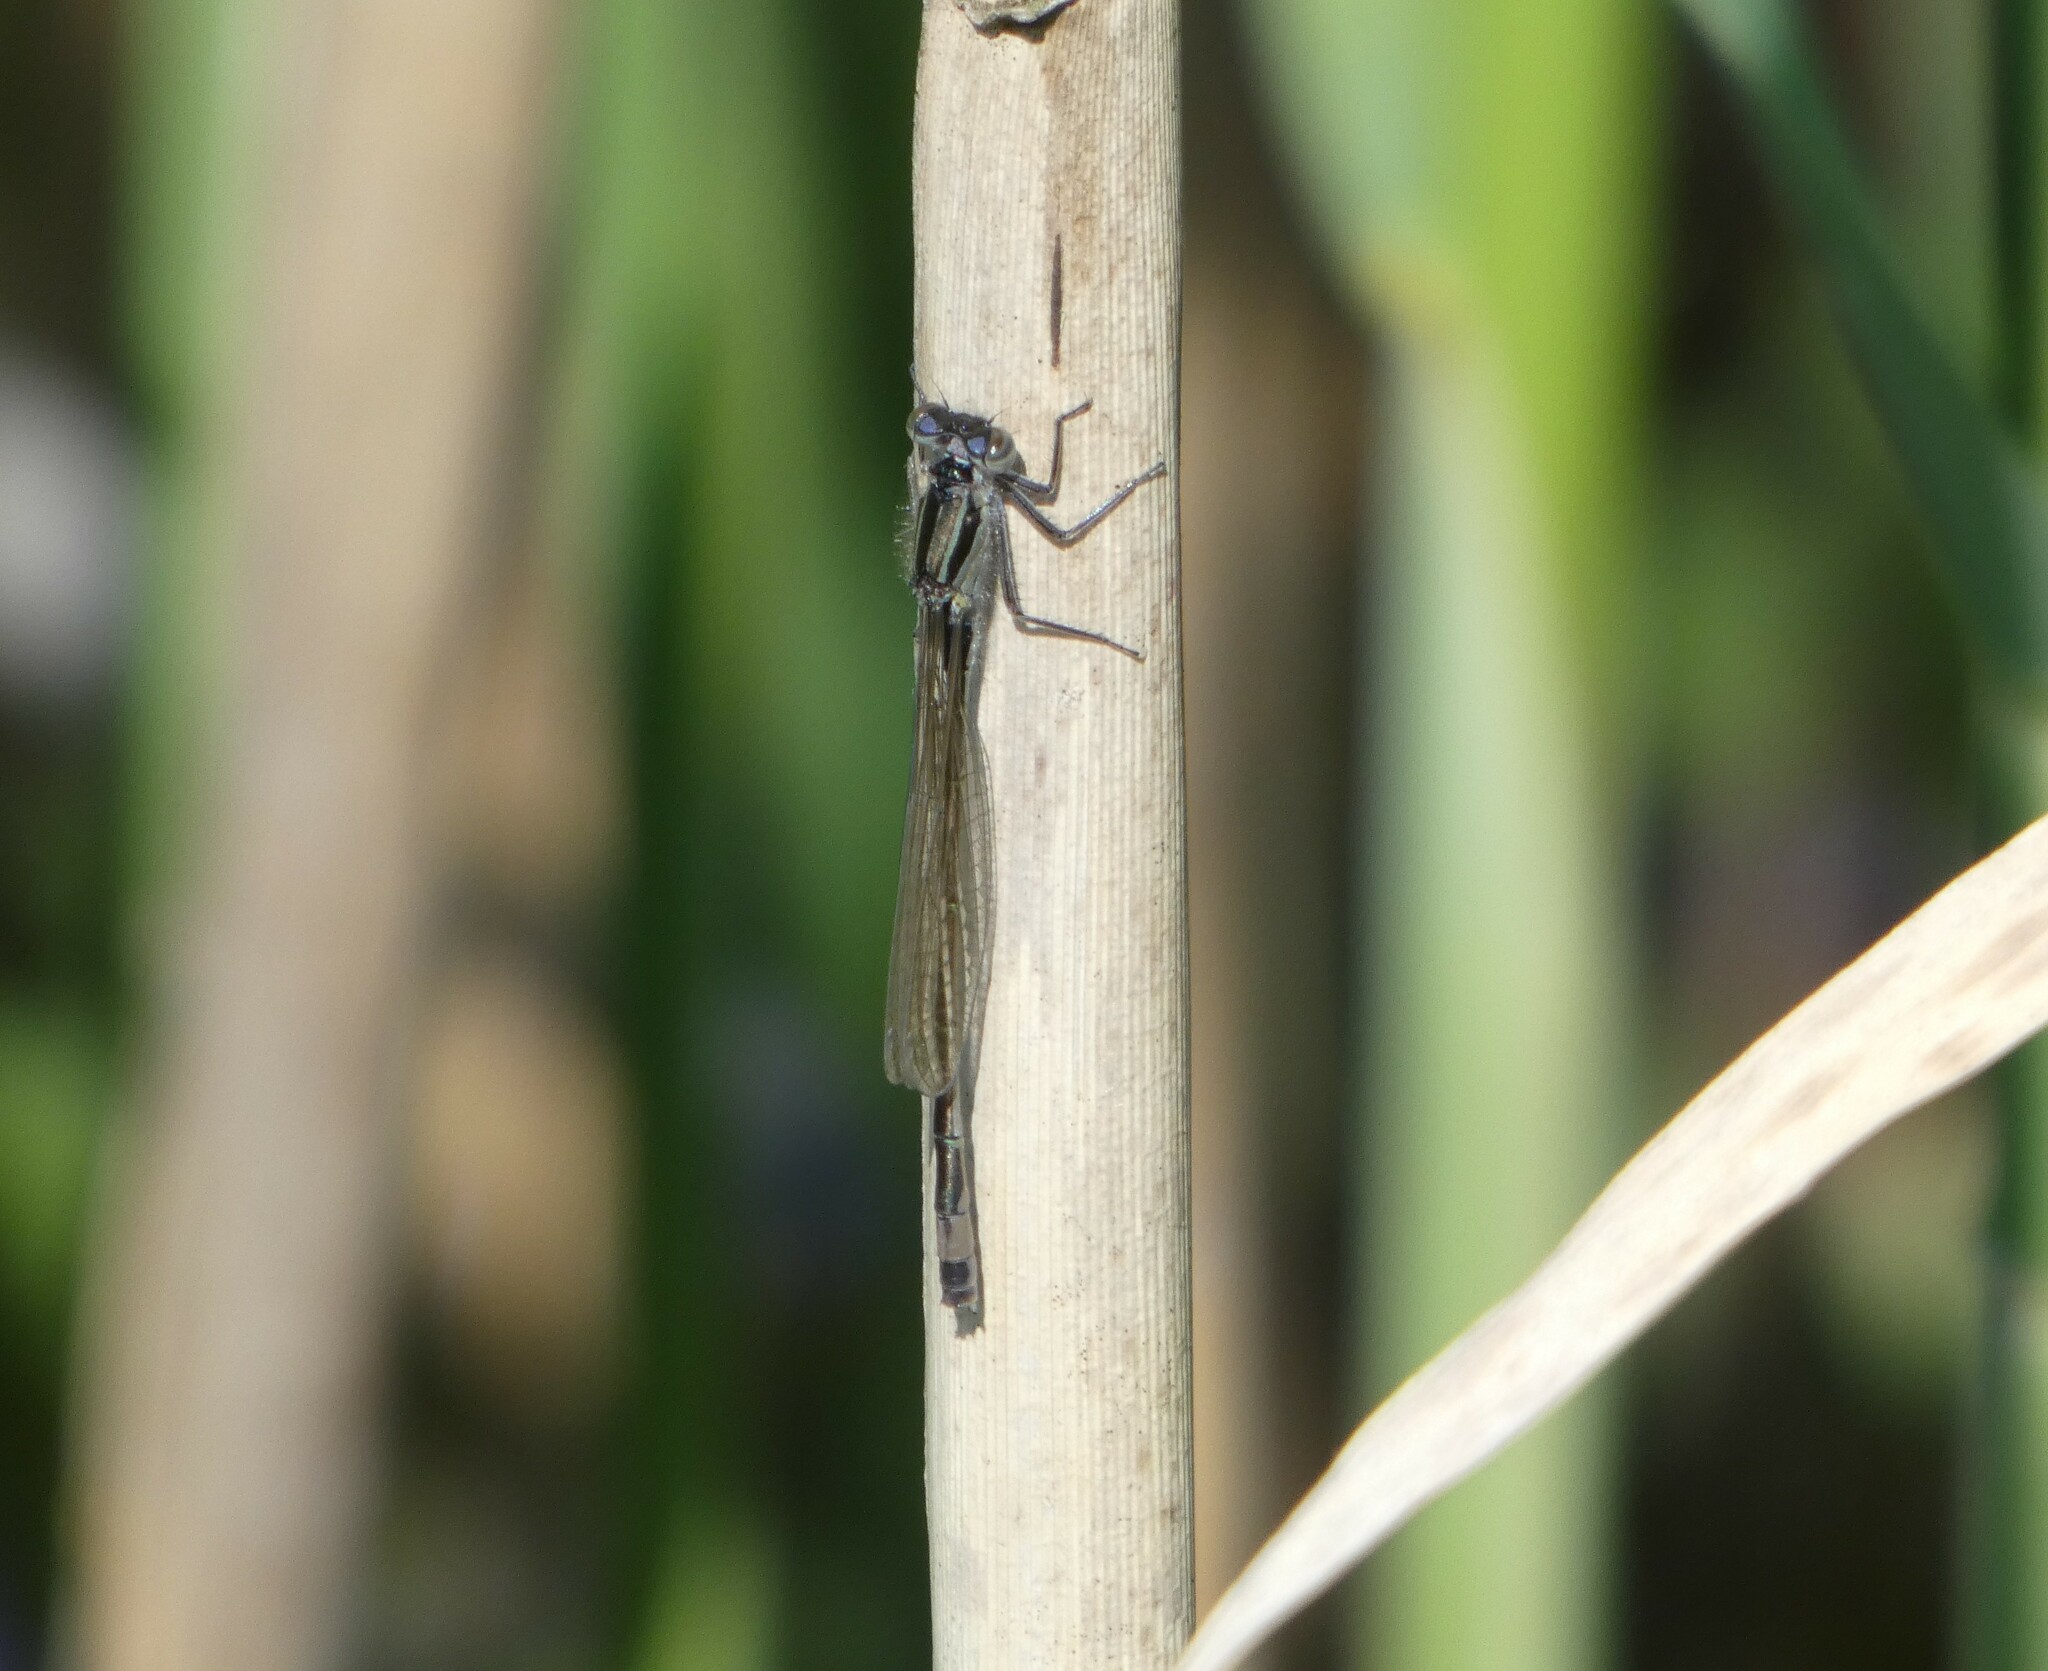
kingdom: Animalia
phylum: Arthropoda
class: Insecta
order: Odonata
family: Coenagrionidae
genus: Ischnura
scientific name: Ischnura elegans
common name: Blue-tailed damselfly
